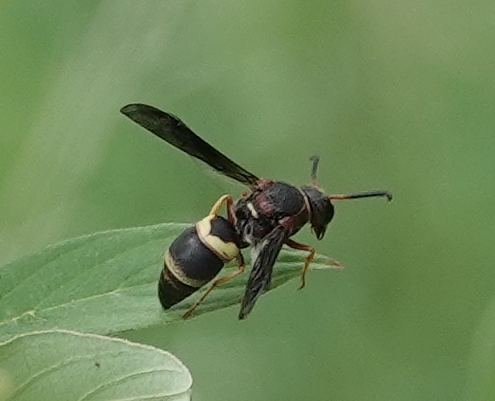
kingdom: Animalia
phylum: Arthropoda
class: Insecta
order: Hymenoptera
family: Eumenidae
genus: Euodynerus
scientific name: Euodynerus crypticus
